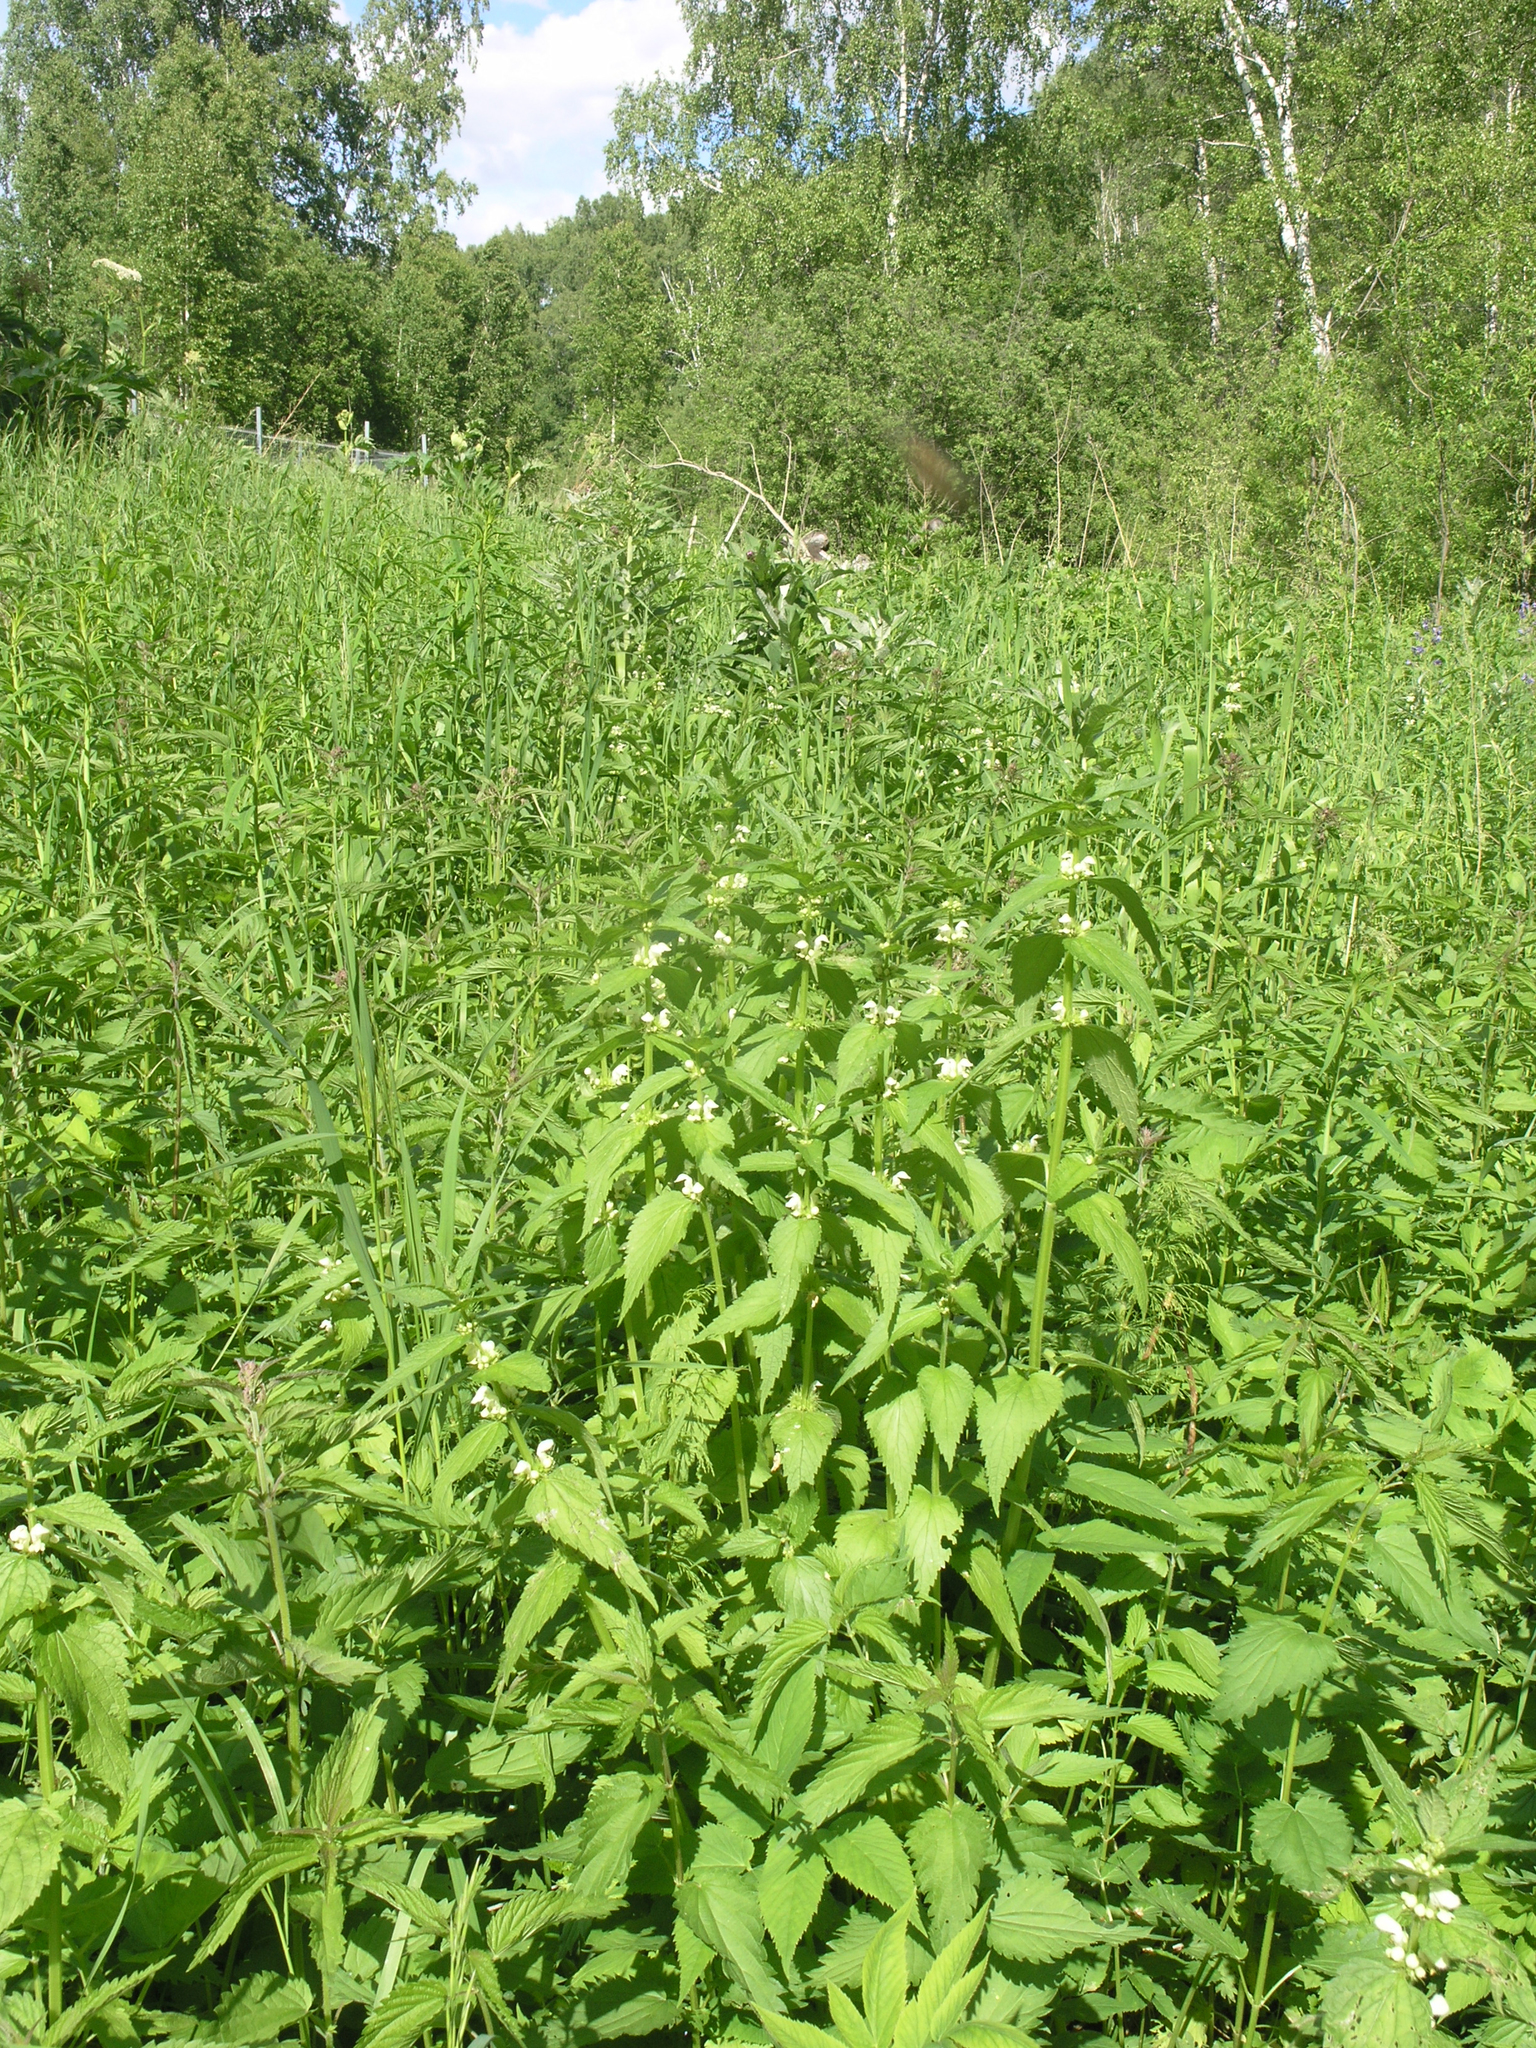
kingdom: Plantae
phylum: Tracheophyta
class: Magnoliopsida
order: Lamiales
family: Lamiaceae
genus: Lamium
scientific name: Lamium album
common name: White dead-nettle
